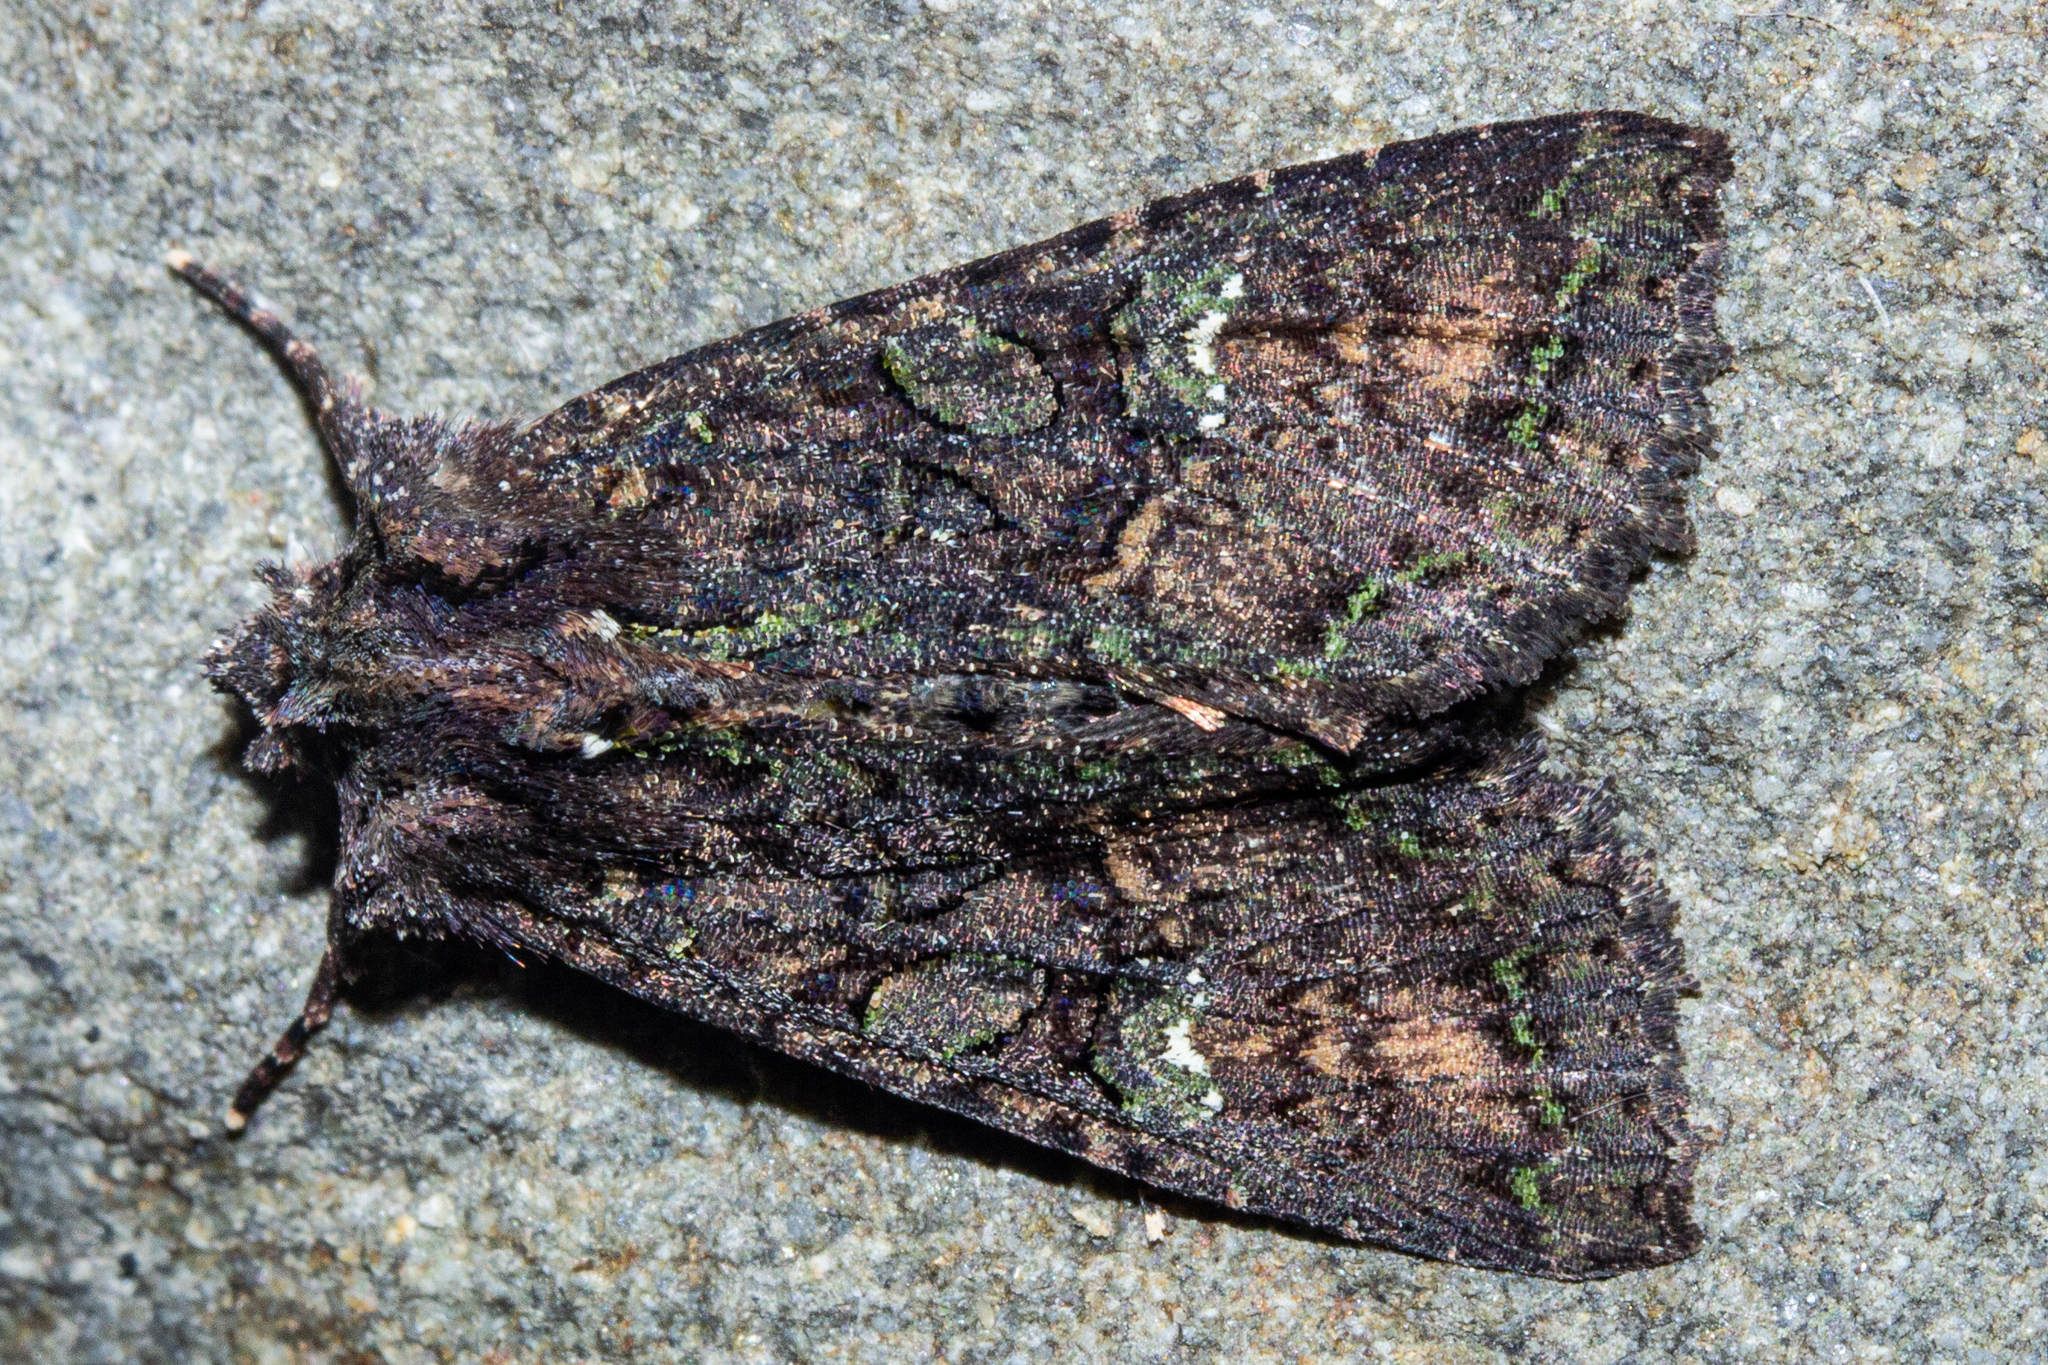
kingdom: Animalia
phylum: Arthropoda
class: Insecta
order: Lepidoptera
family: Noctuidae
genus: Meterana
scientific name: Meterana ochthistis
